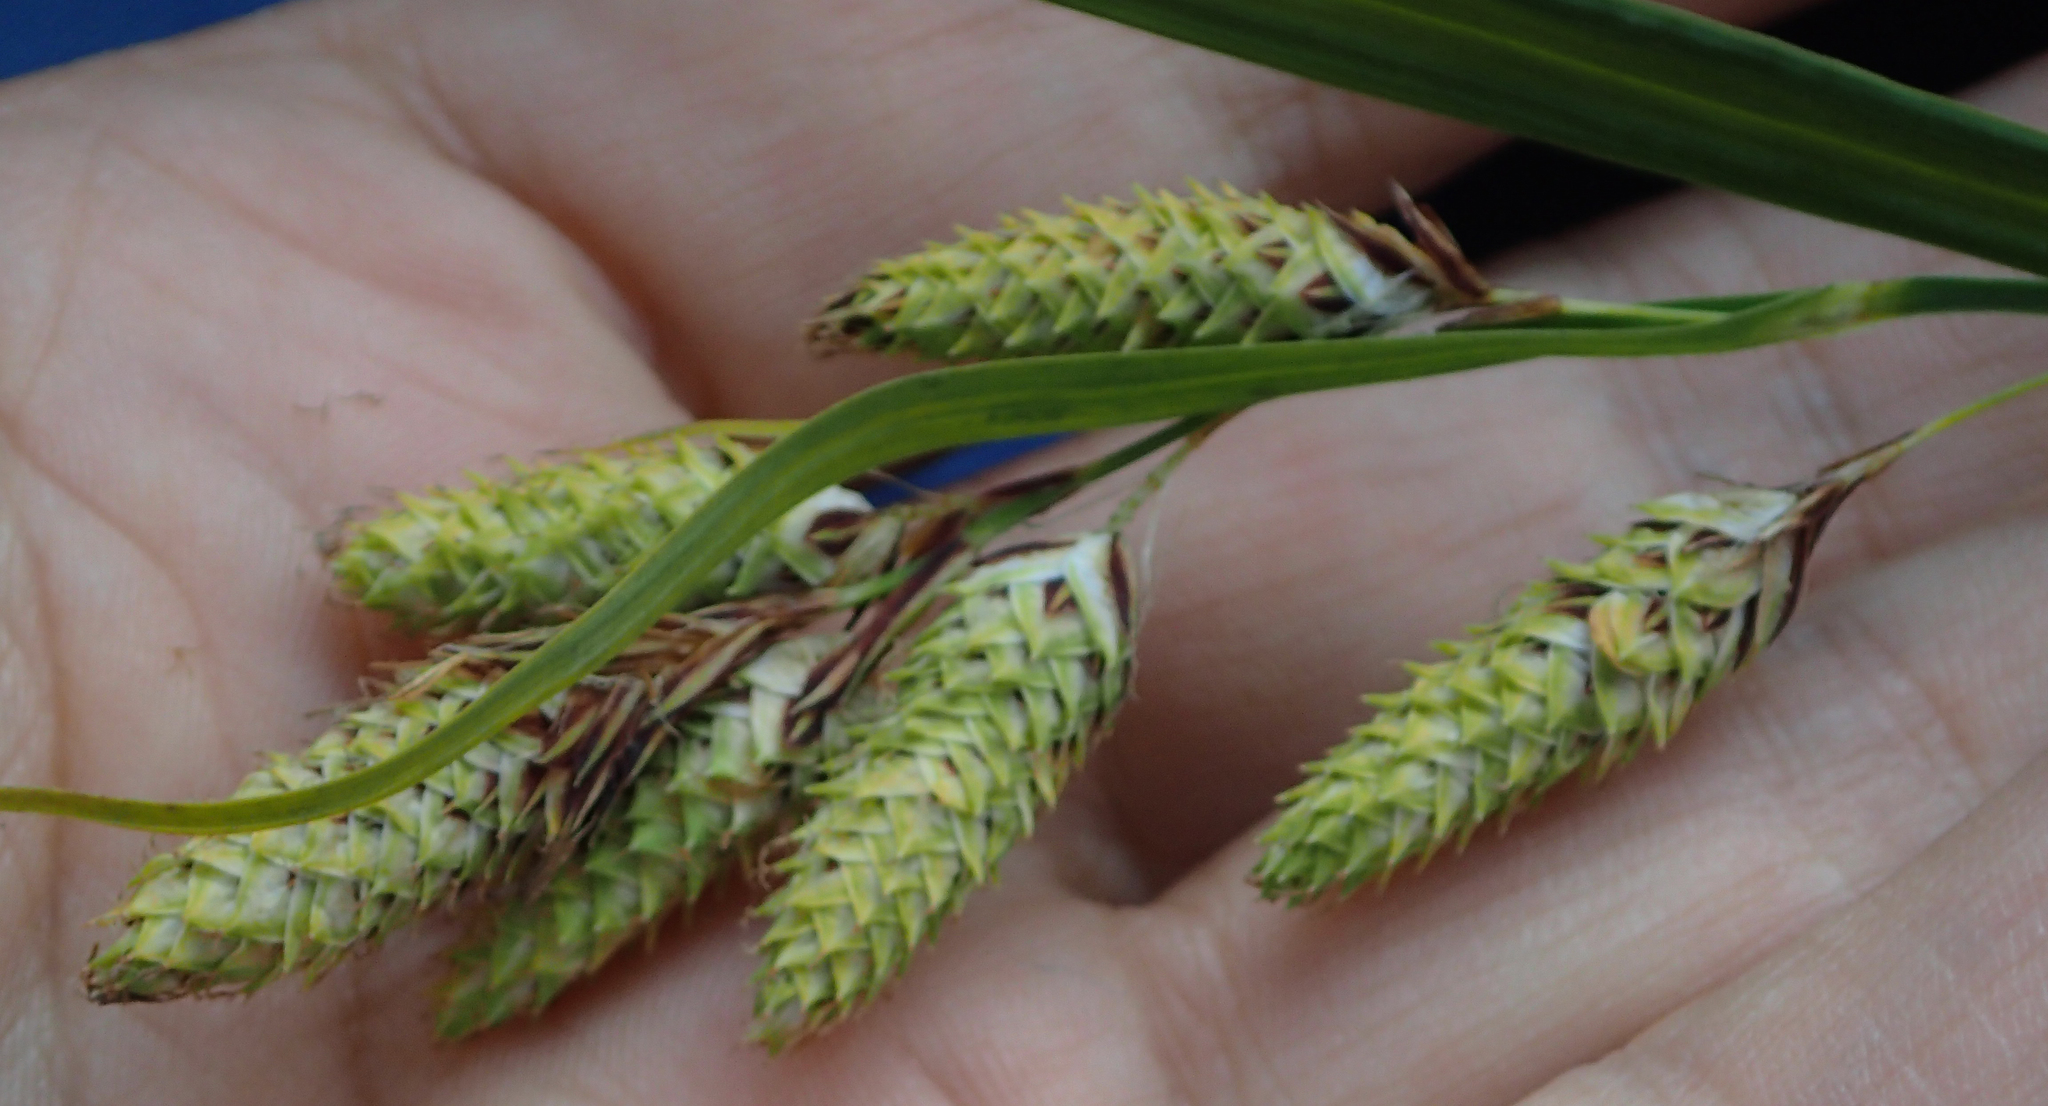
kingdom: Plantae
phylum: Tracheophyta
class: Liliopsida
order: Poales
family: Cyperaceae
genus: Carex
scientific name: Carex mertensii
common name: Mertens' sedge
